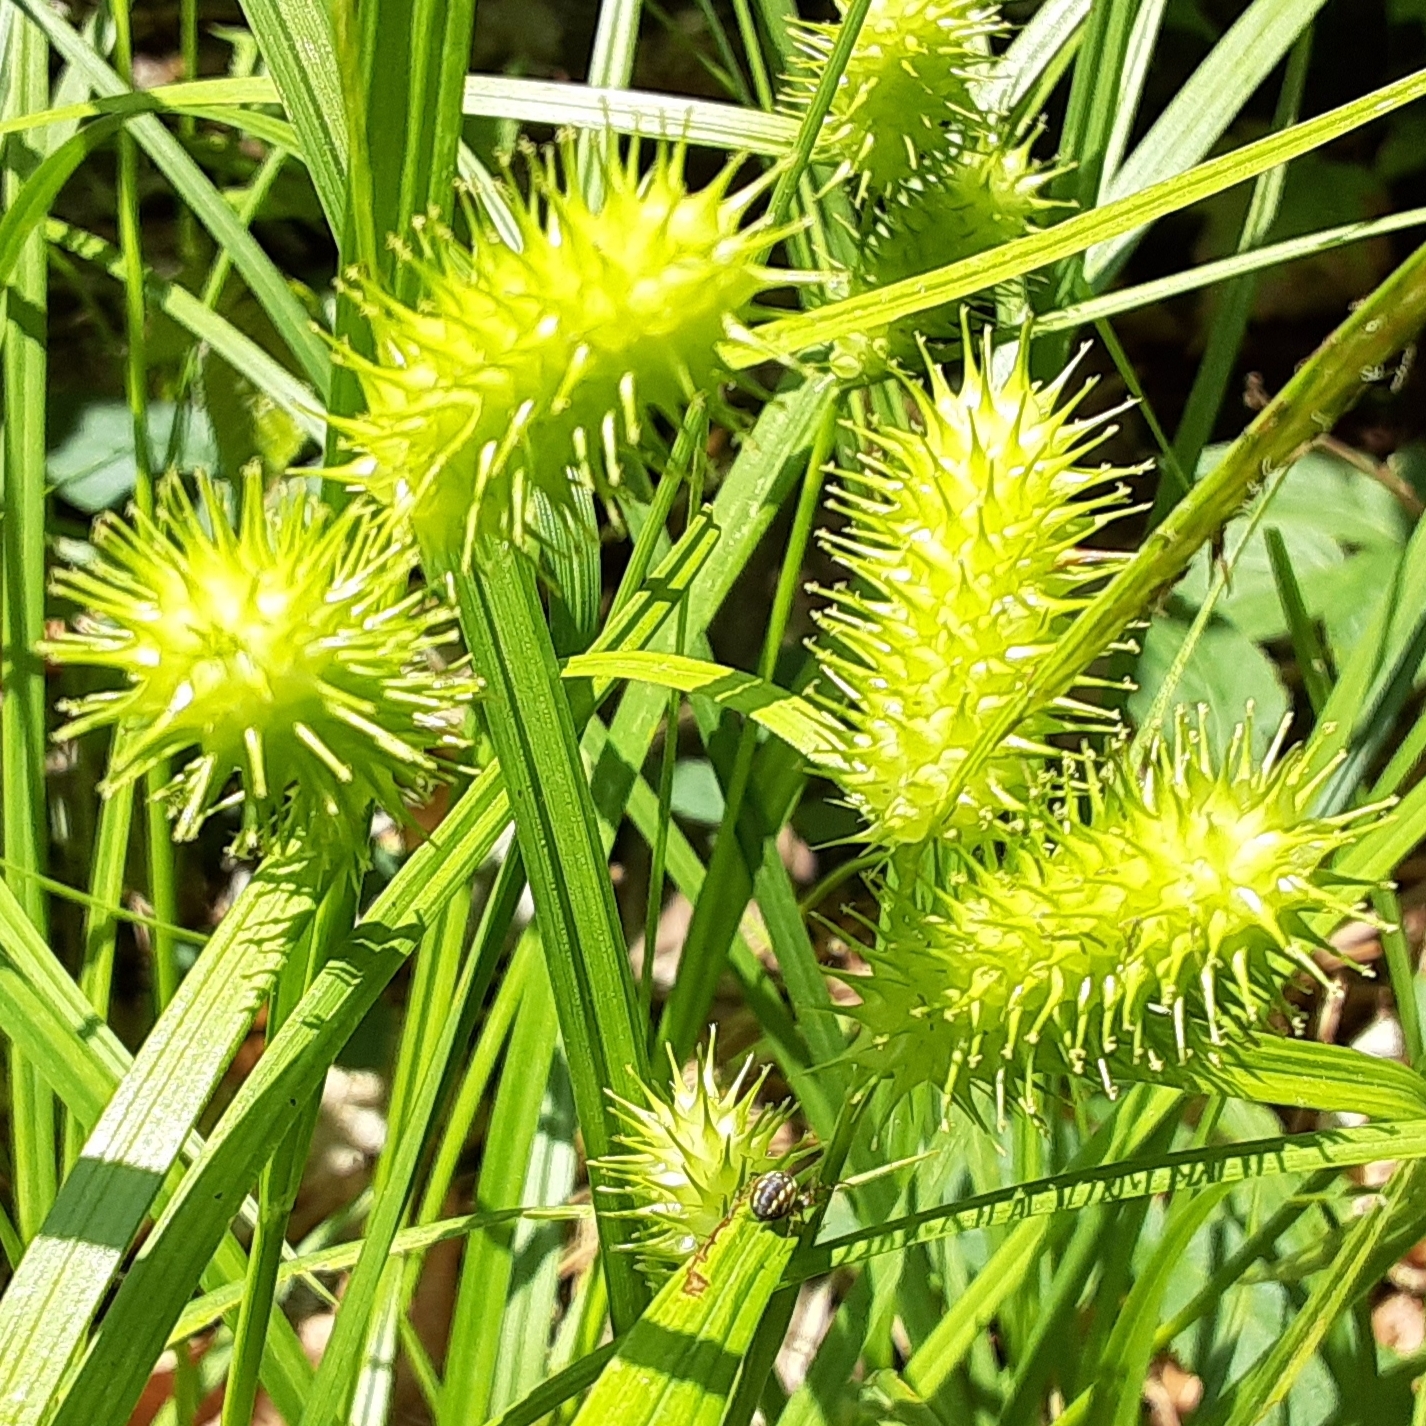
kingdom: Plantae
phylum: Tracheophyta
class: Liliopsida
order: Poales
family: Cyperaceae
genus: Carex
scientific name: Carex lurida
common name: Sallow sedge
